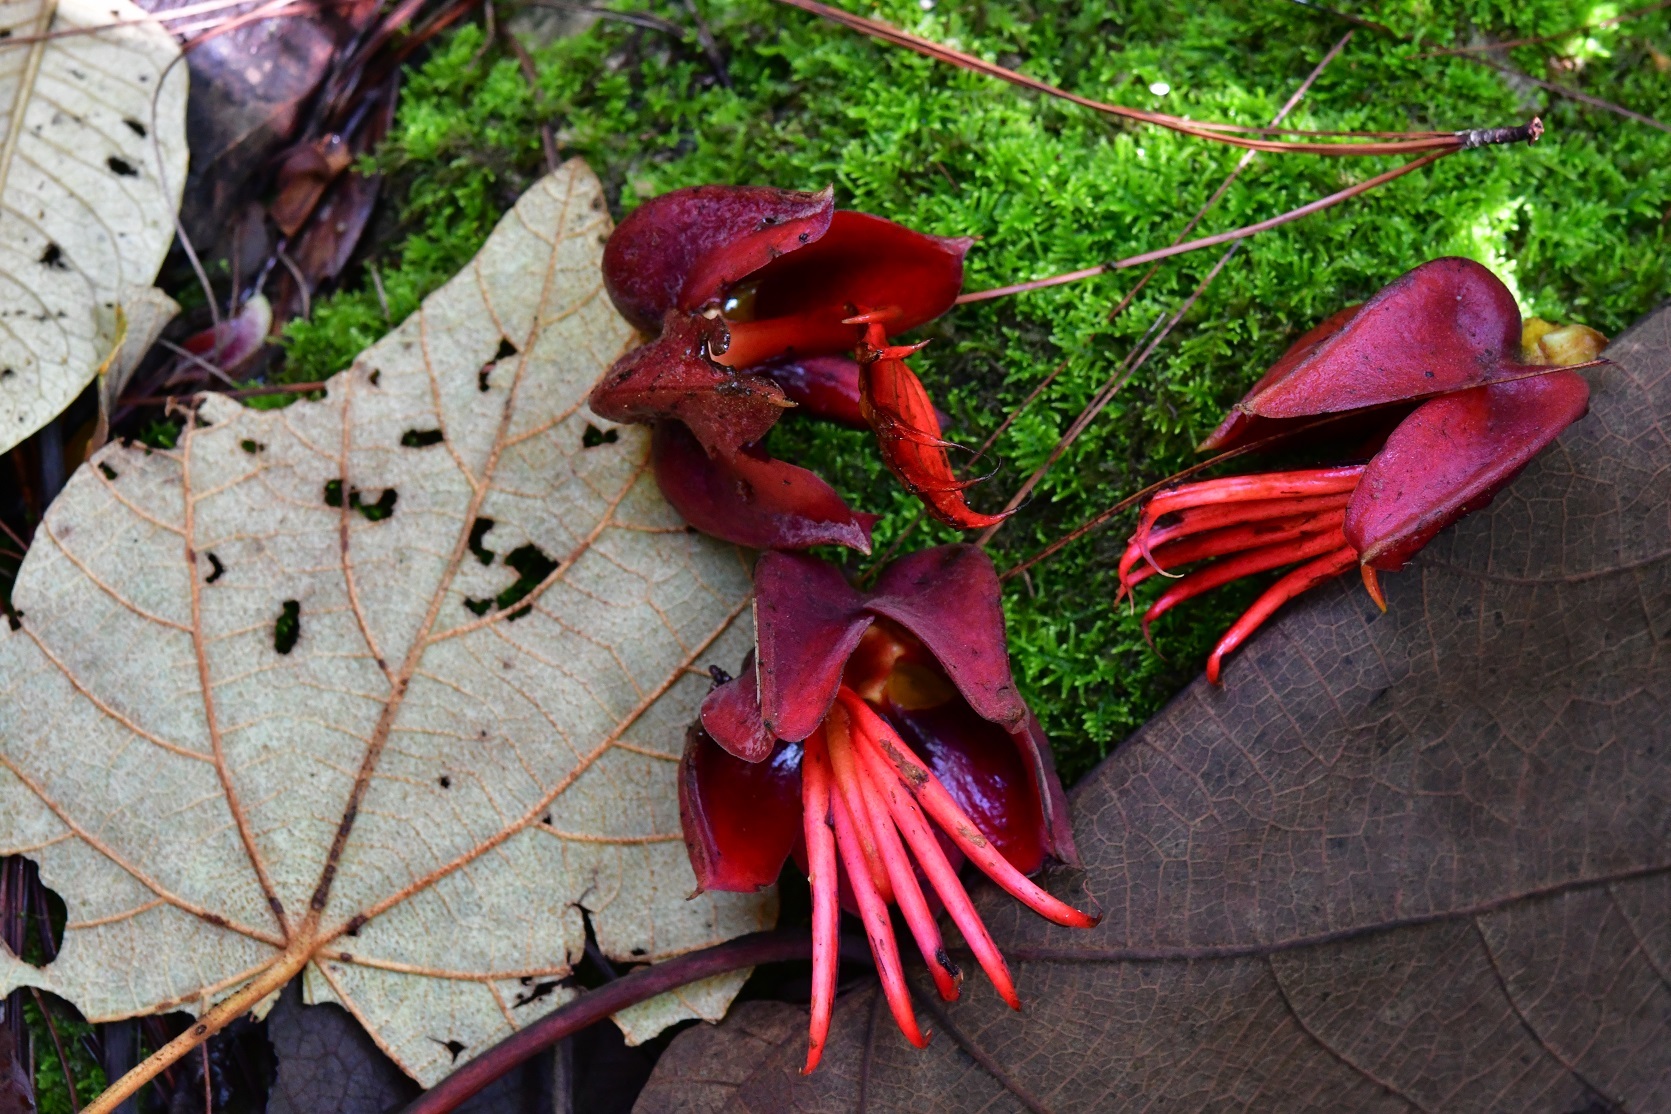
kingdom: Plantae
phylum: Tracheophyta
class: Magnoliopsida
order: Malvales
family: Malvaceae
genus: Chiranthodendron
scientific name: Chiranthodendron pentadactylon
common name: Mexican-hat-plant
